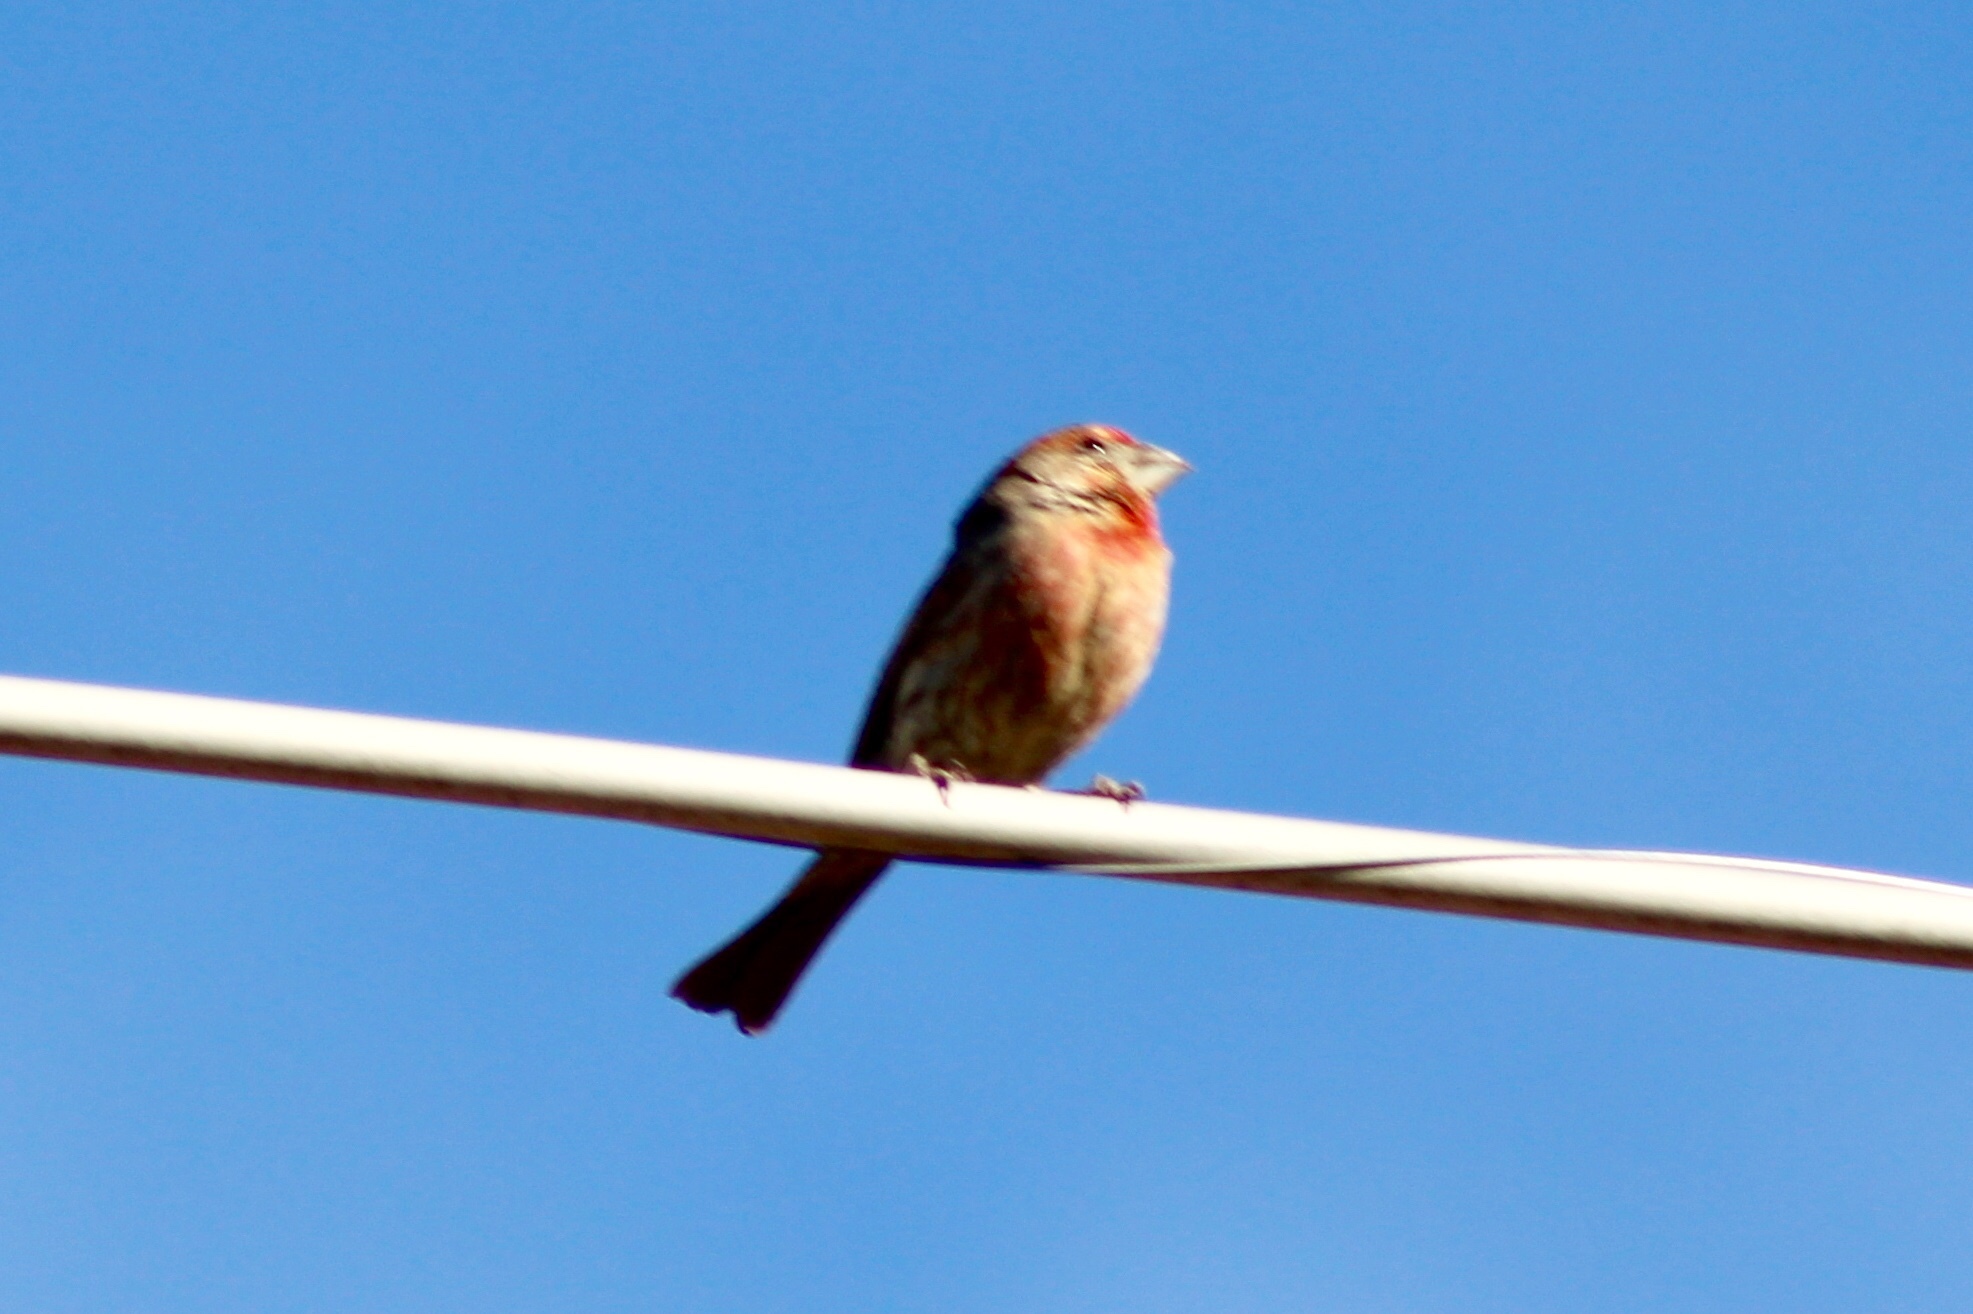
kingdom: Animalia
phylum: Chordata
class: Aves
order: Passeriformes
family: Fringillidae
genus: Haemorhous
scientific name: Haemorhous mexicanus
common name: House finch
